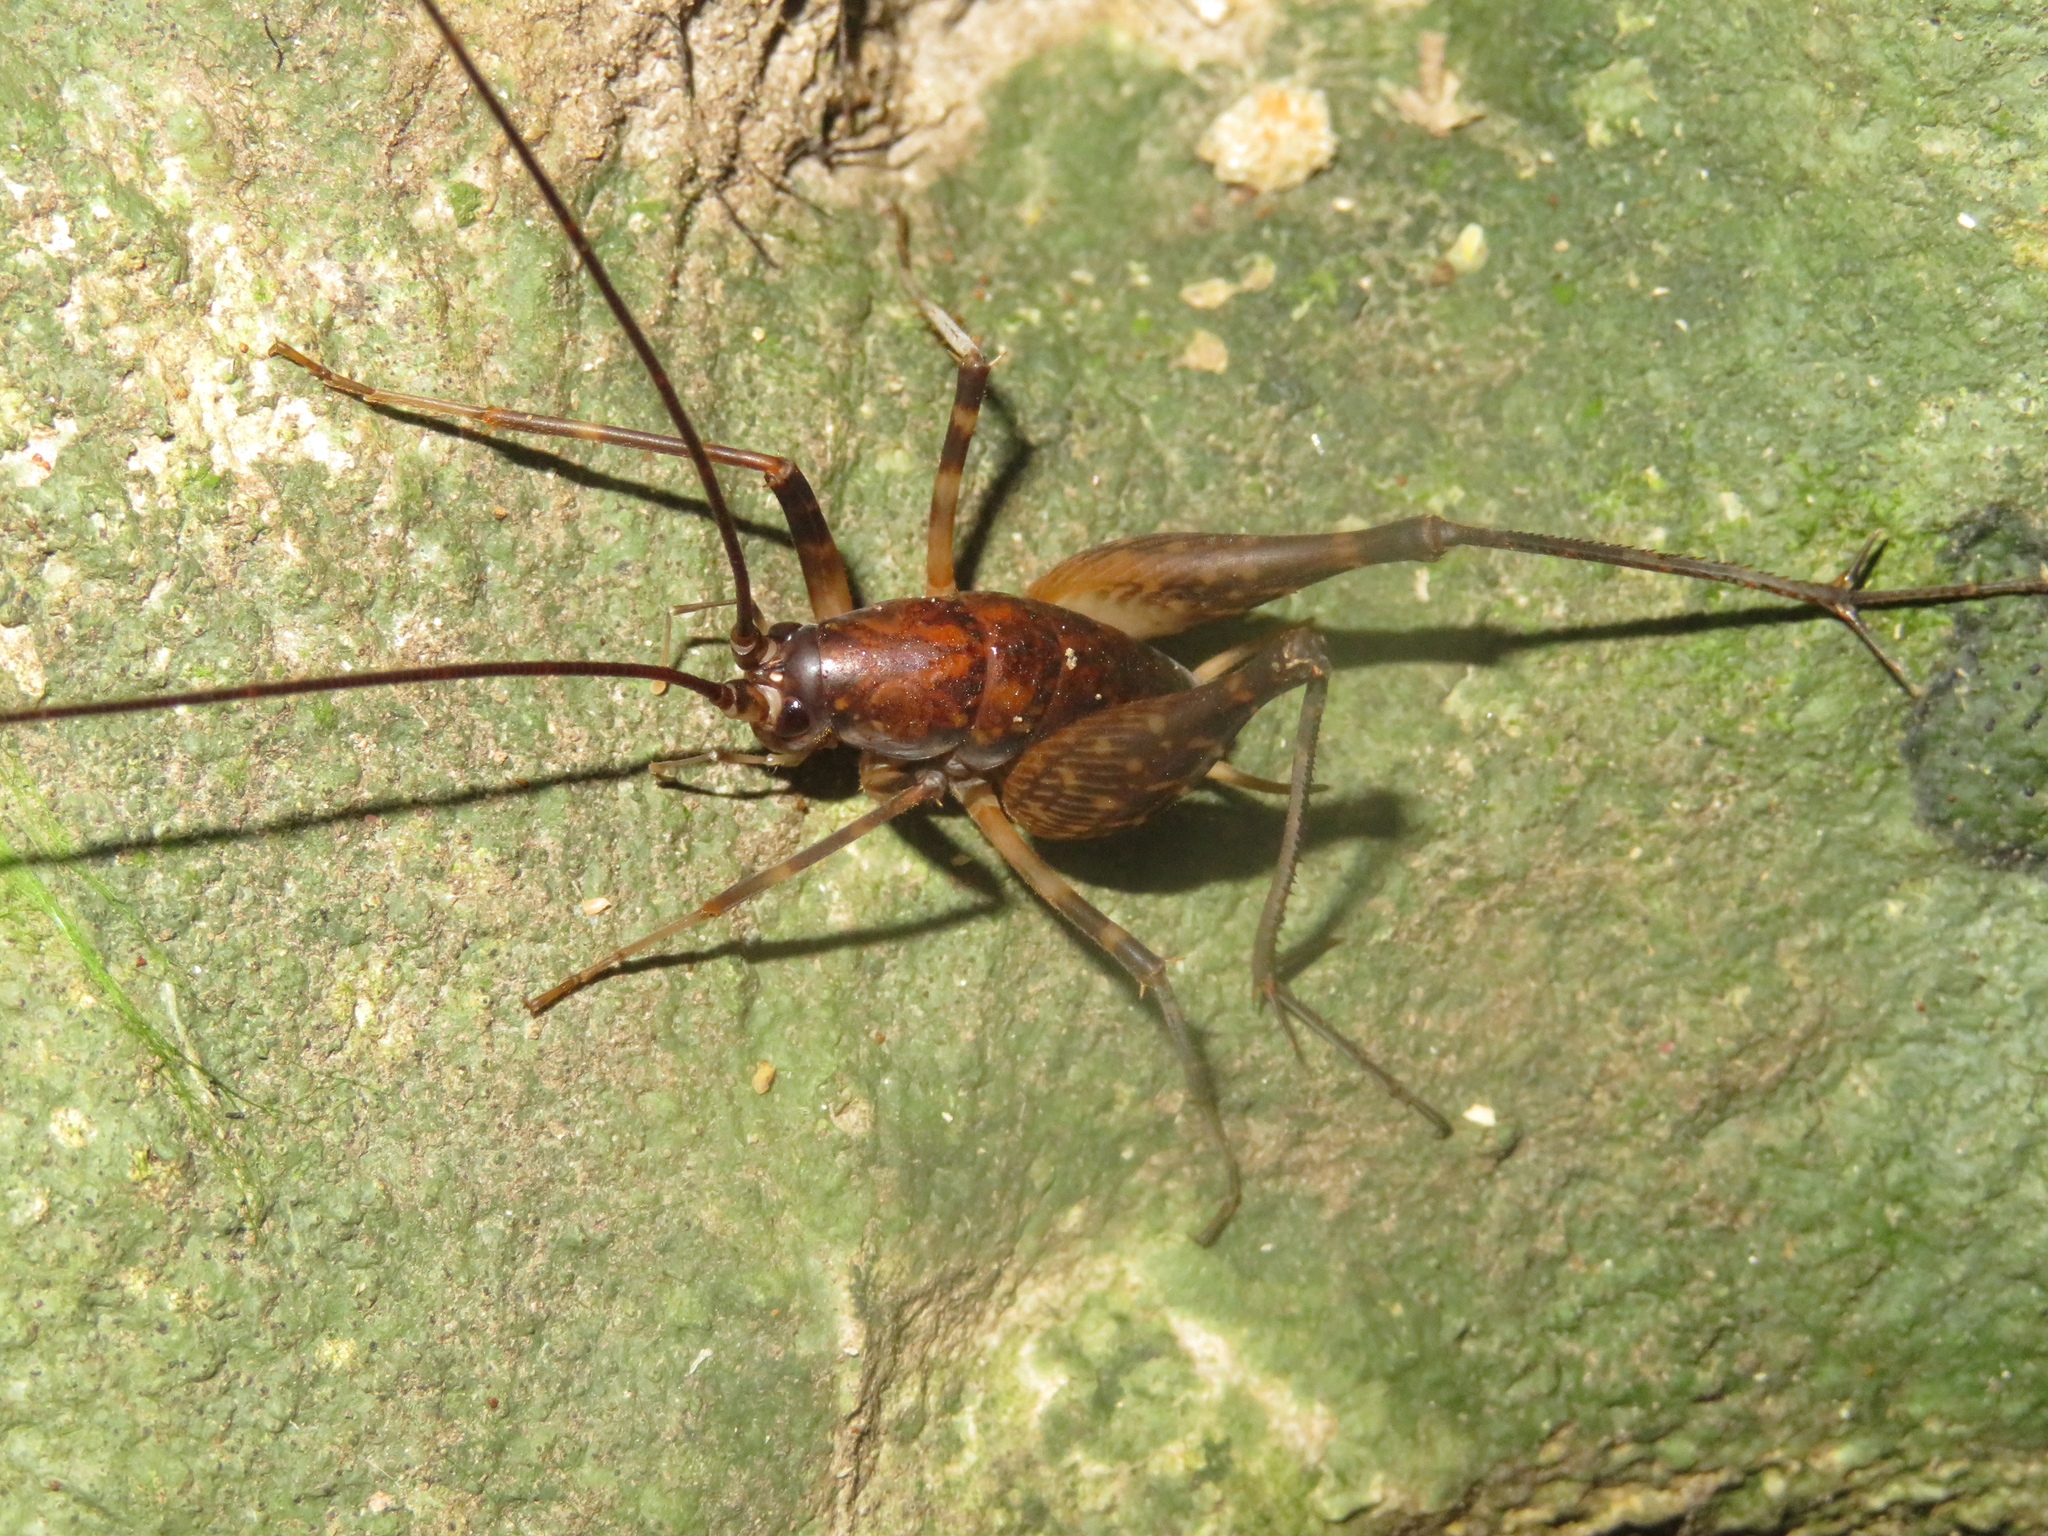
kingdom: Animalia
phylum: Arthropoda
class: Insecta
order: Orthoptera
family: Rhaphidophoridae
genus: Miotopus
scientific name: Miotopus diversus
